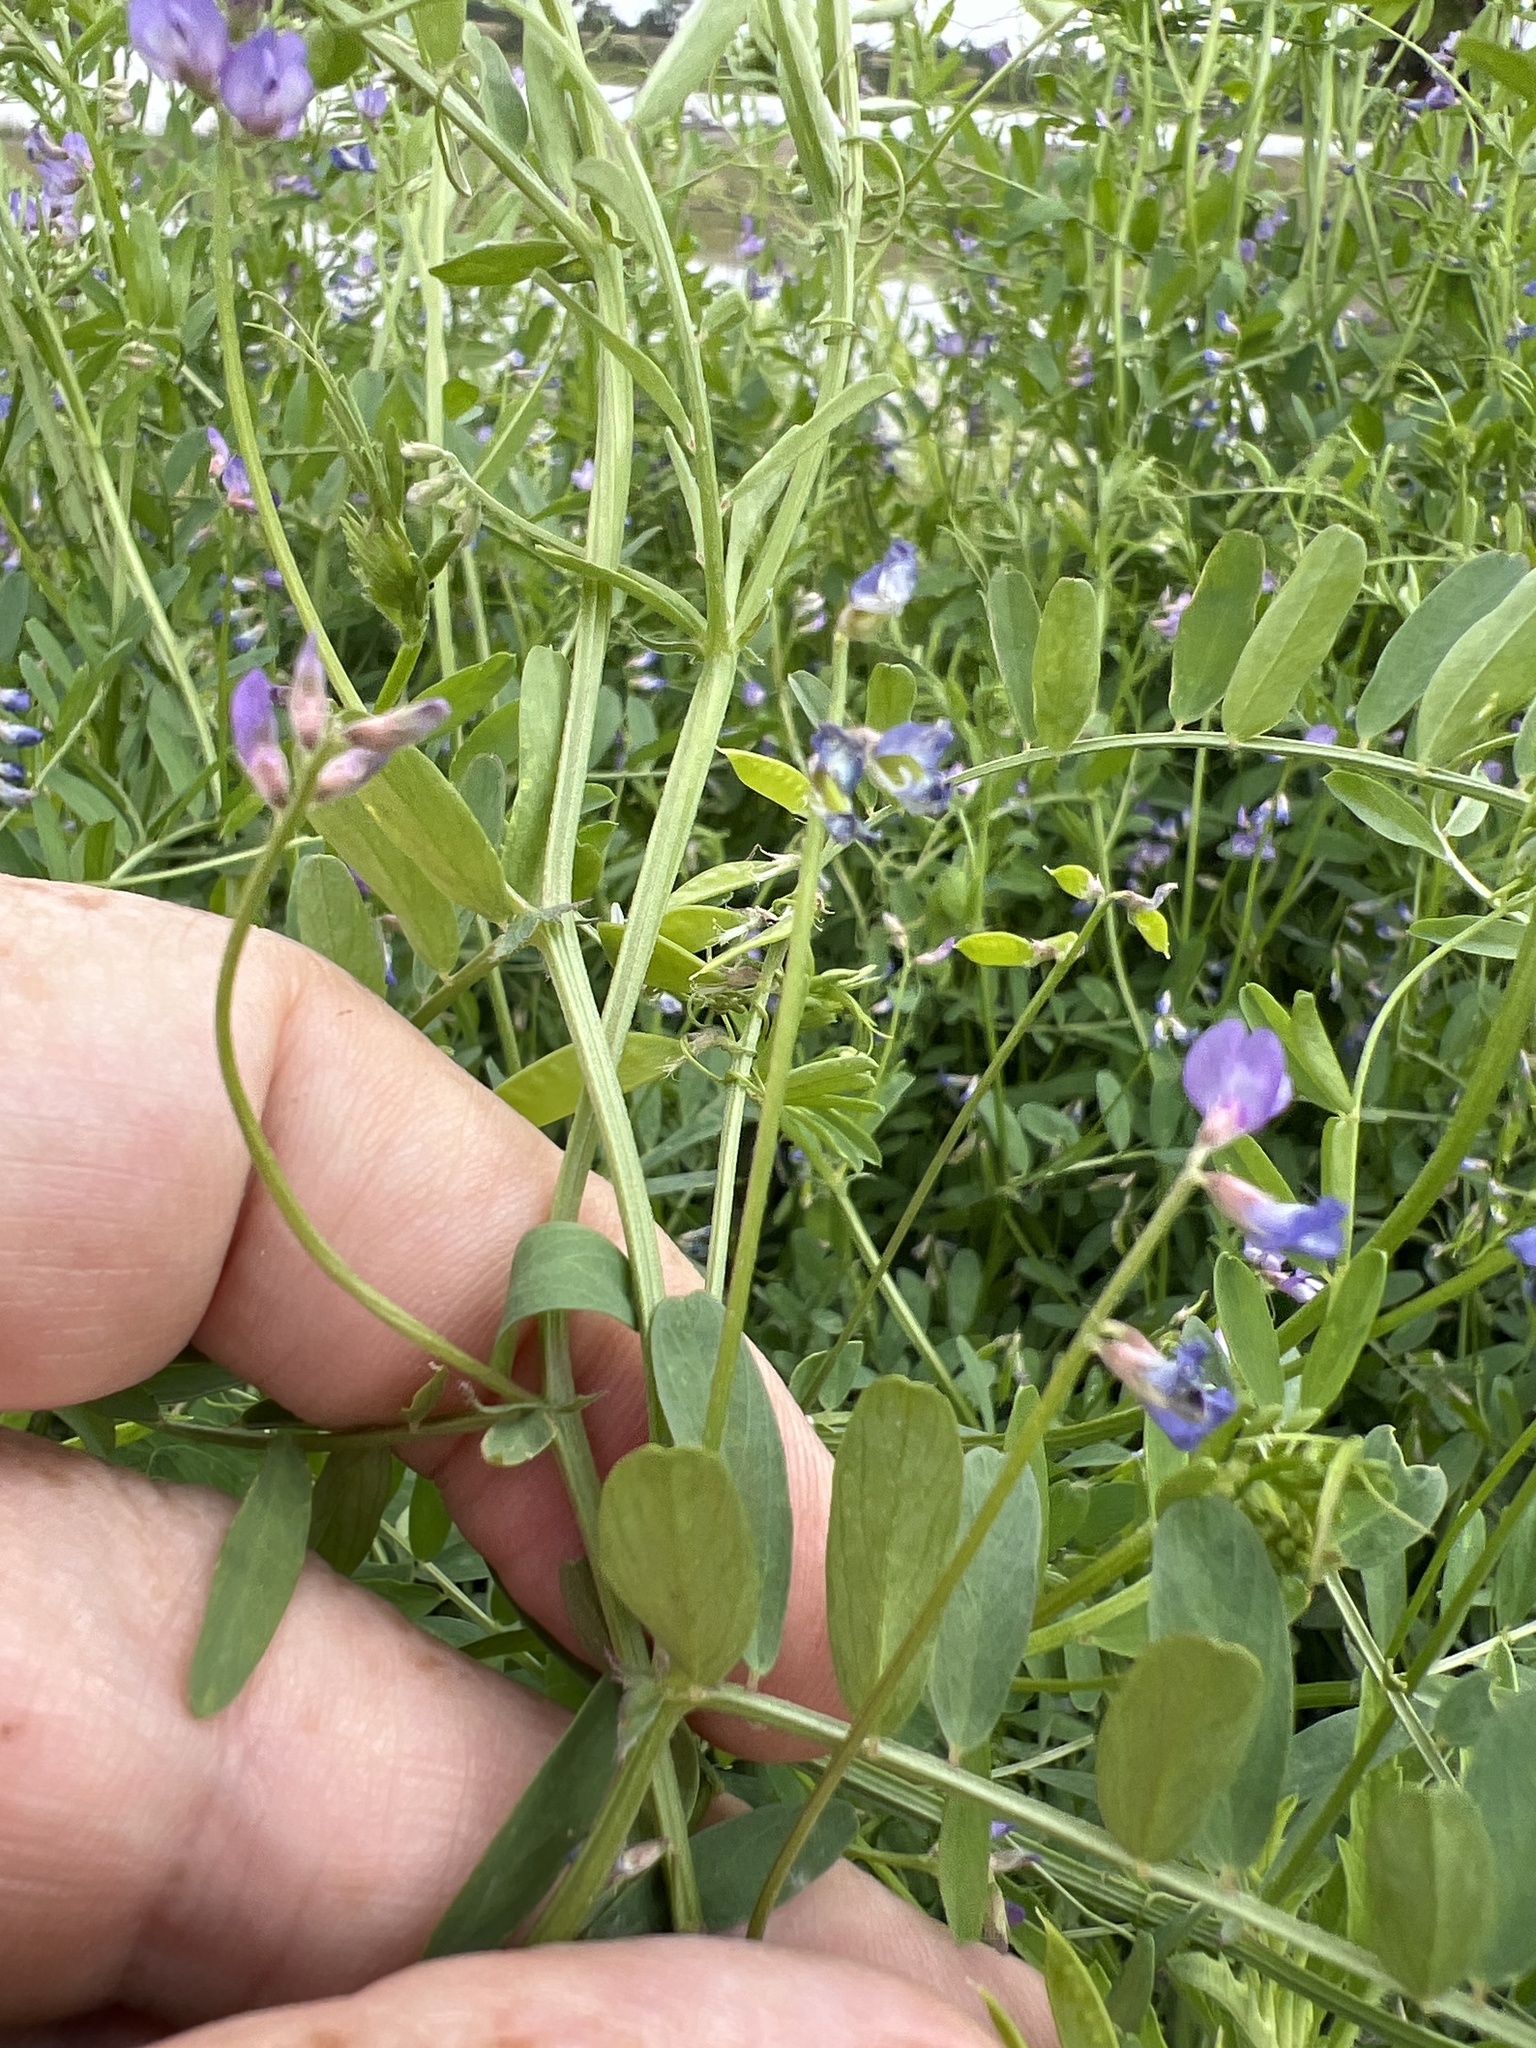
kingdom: Plantae
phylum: Tracheophyta
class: Magnoliopsida
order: Fabales
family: Fabaceae
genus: Vicia
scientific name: Vicia ludoviciana
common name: Louisiana vetch
